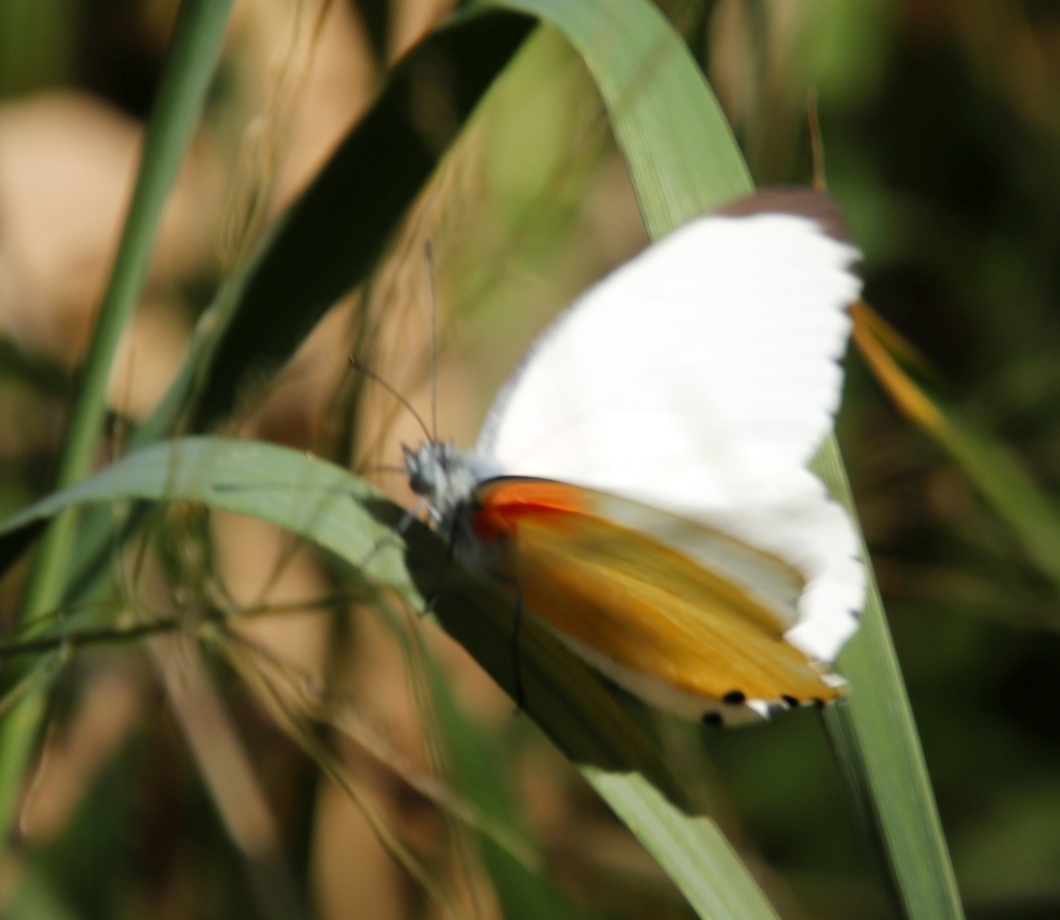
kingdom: Animalia
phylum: Arthropoda
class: Insecta
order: Lepidoptera
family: Pieridae
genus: Mylothris
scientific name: Mylothris agathina
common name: Eastern dotted border
